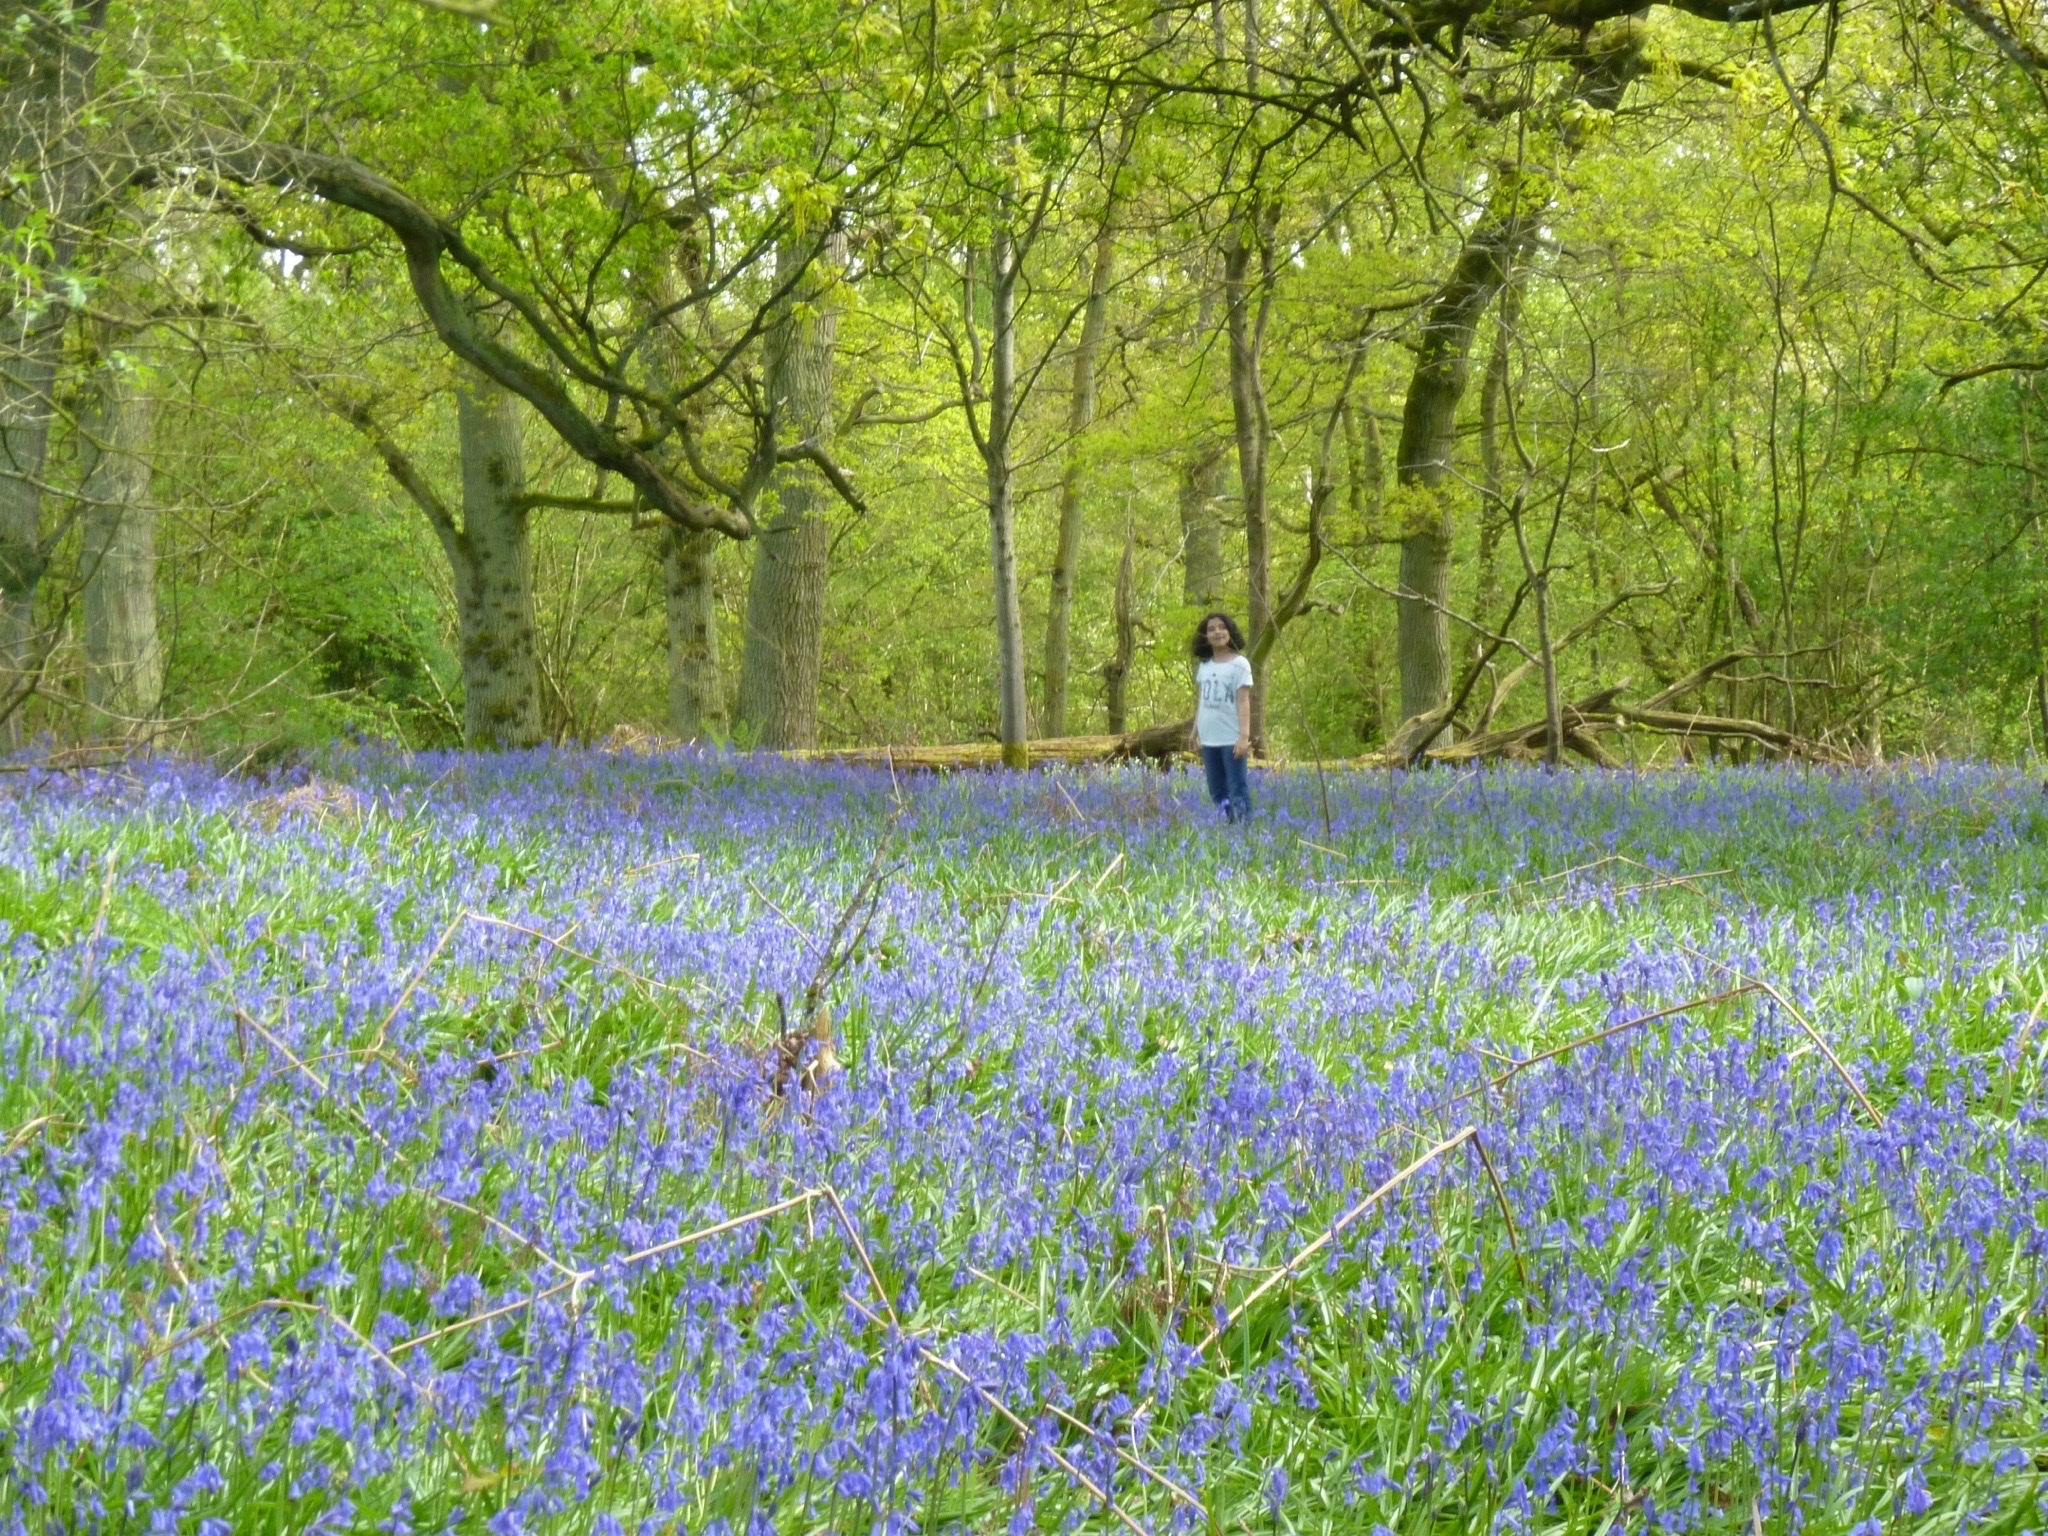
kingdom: Plantae
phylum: Tracheophyta
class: Liliopsida
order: Asparagales
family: Asparagaceae
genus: Hyacinthoides
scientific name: Hyacinthoides non-scripta
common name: Bluebell
